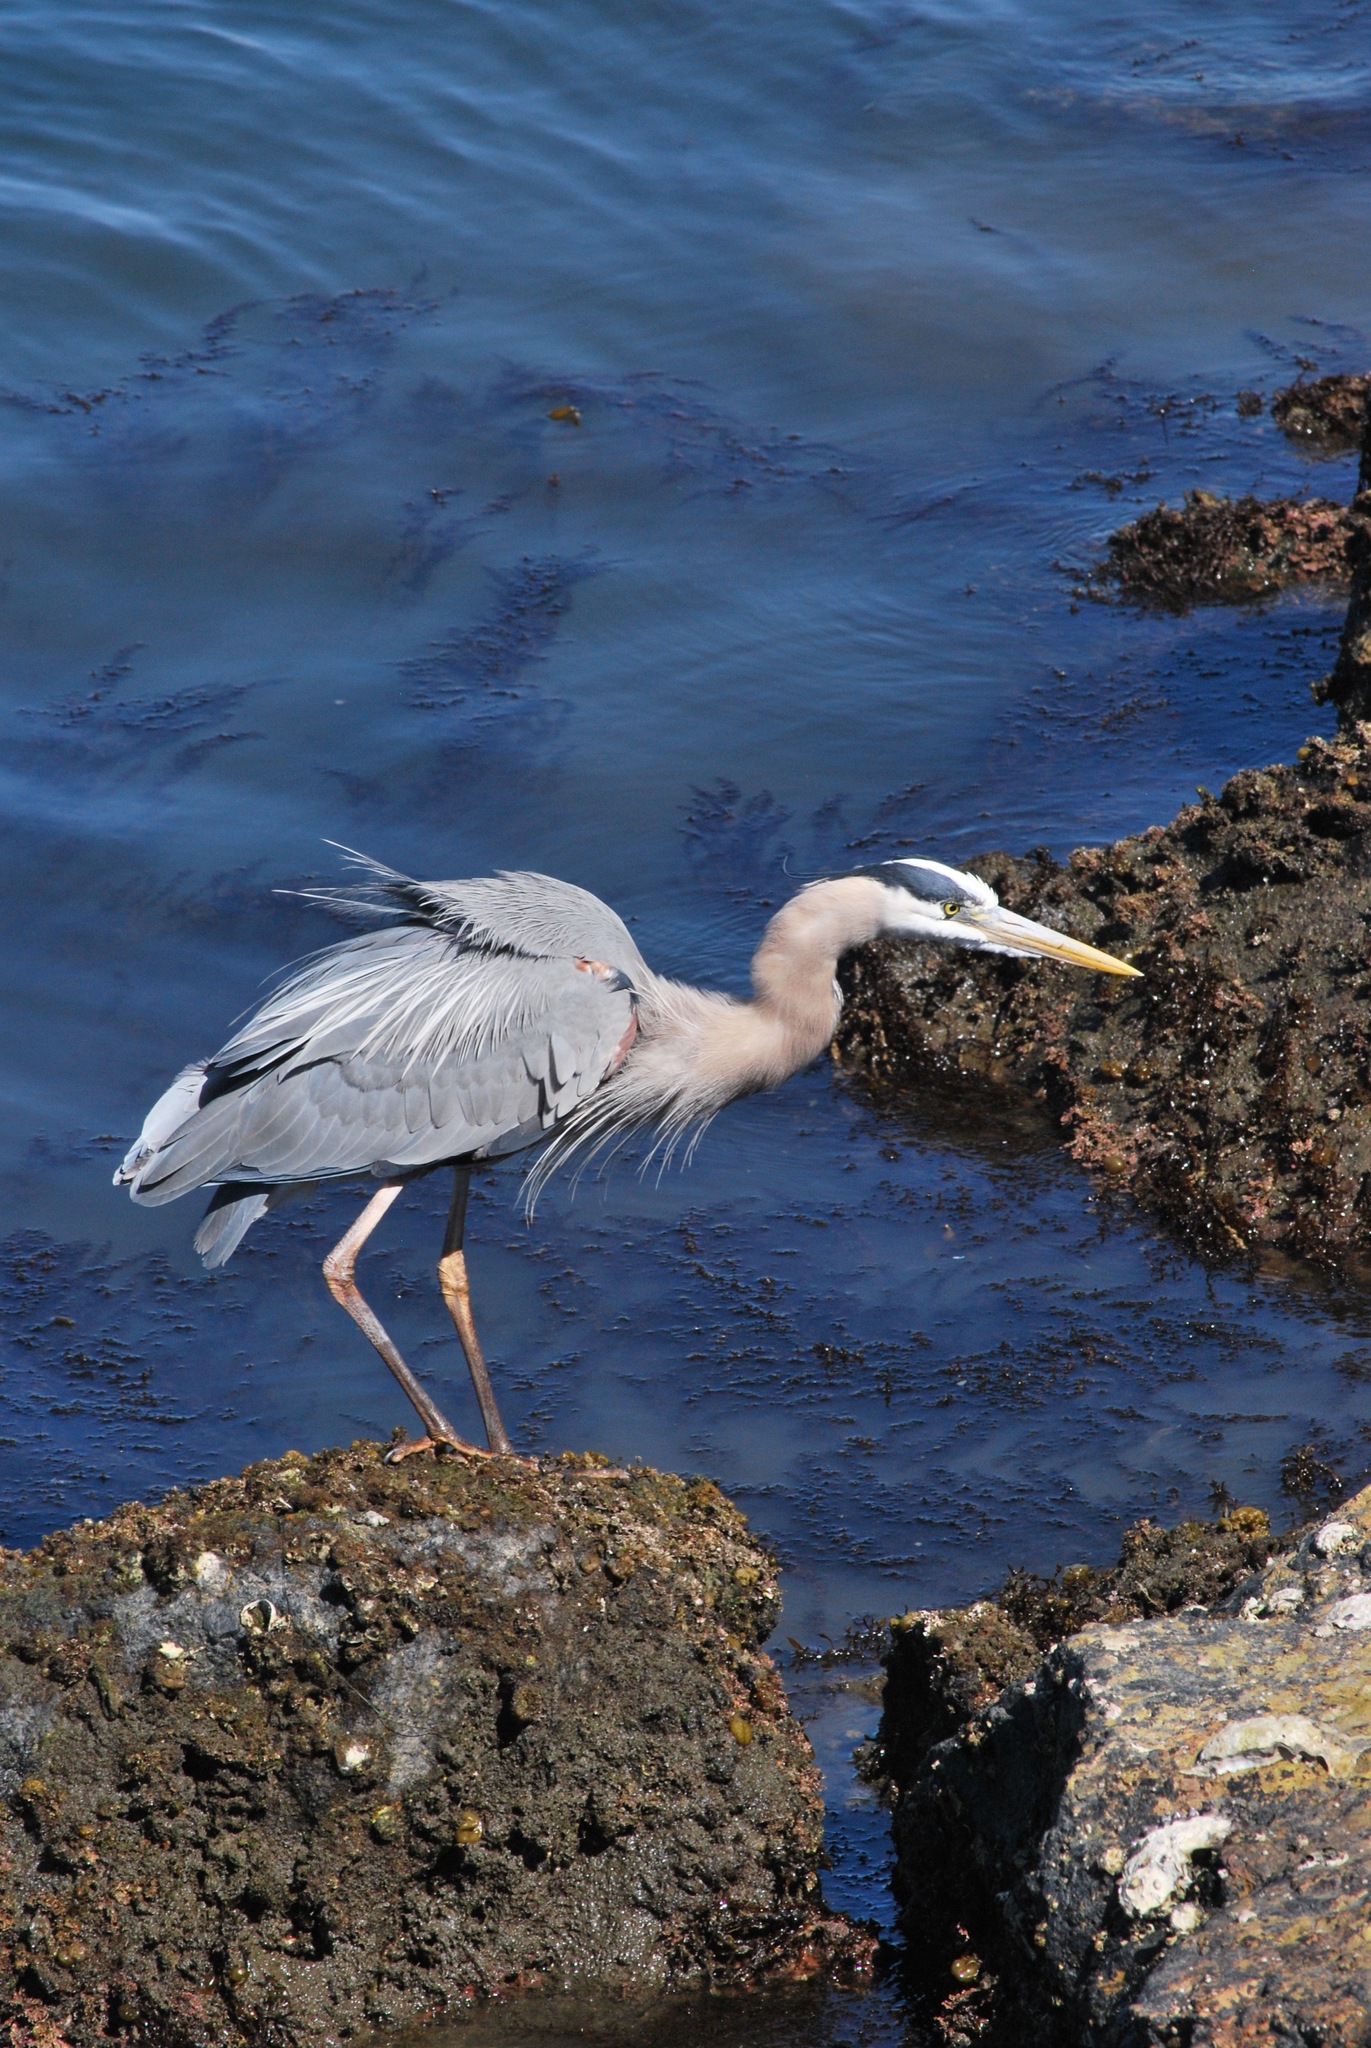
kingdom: Animalia
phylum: Chordata
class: Aves
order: Pelecaniformes
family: Ardeidae
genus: Ardea
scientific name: Ardea herodias
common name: Great blue heron
